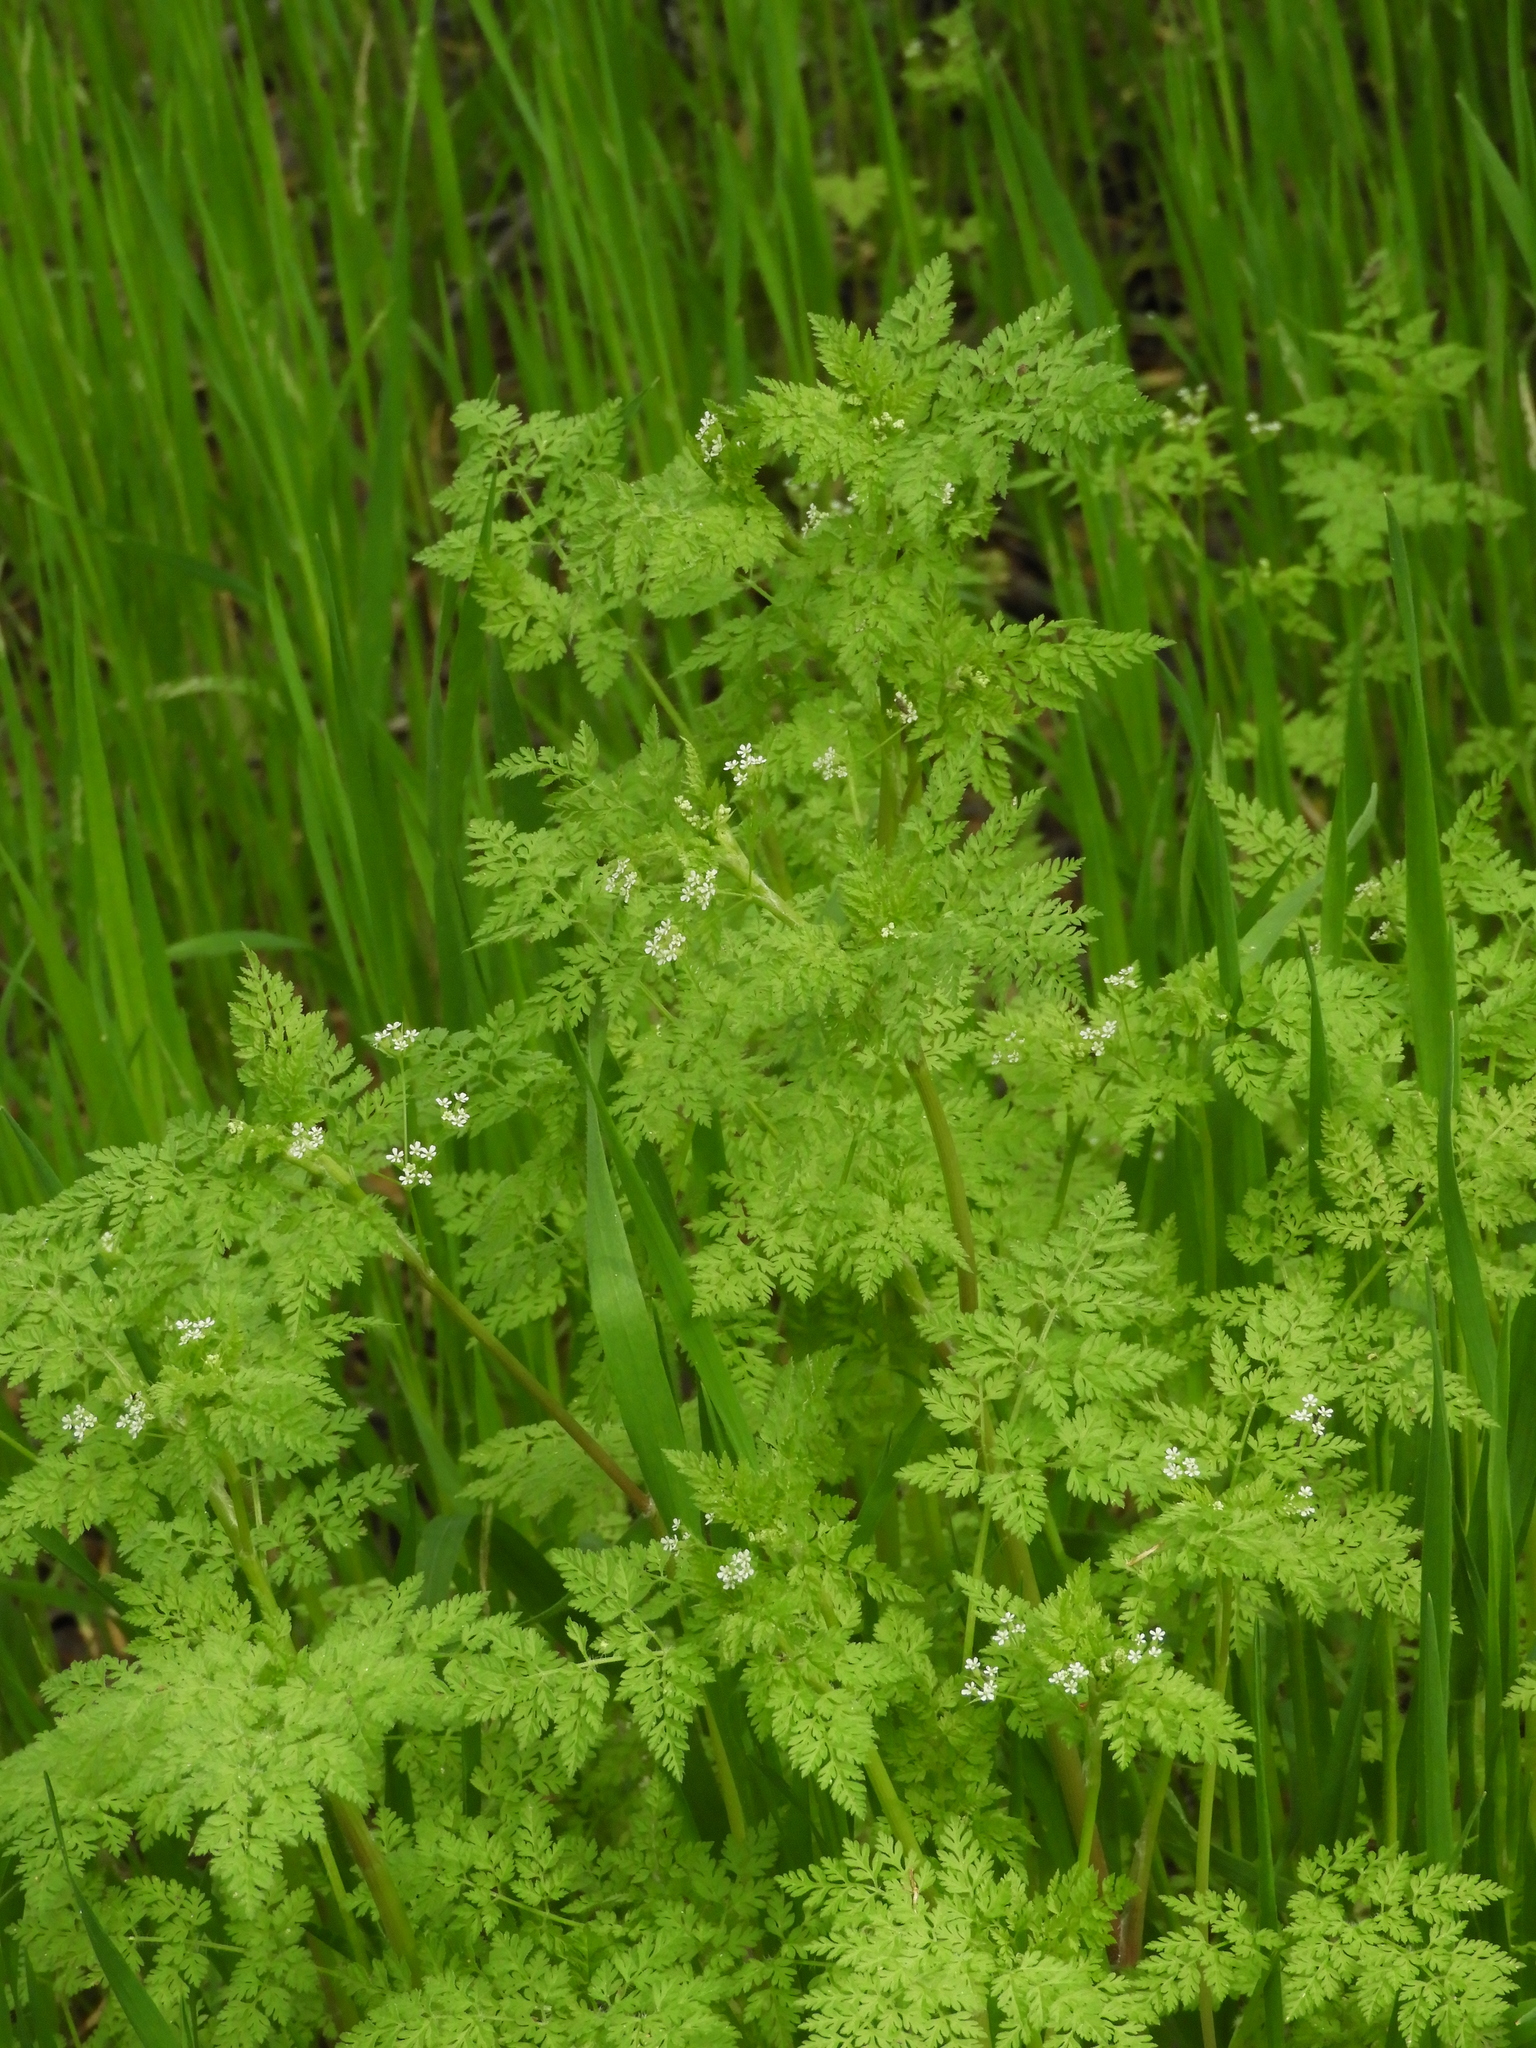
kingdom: Plantae
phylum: Tracheophyta
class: Magnoliopsida
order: Apiales
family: Apiaceae
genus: Anthriscus
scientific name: Anthriscus caucalis
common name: Bur chervil
